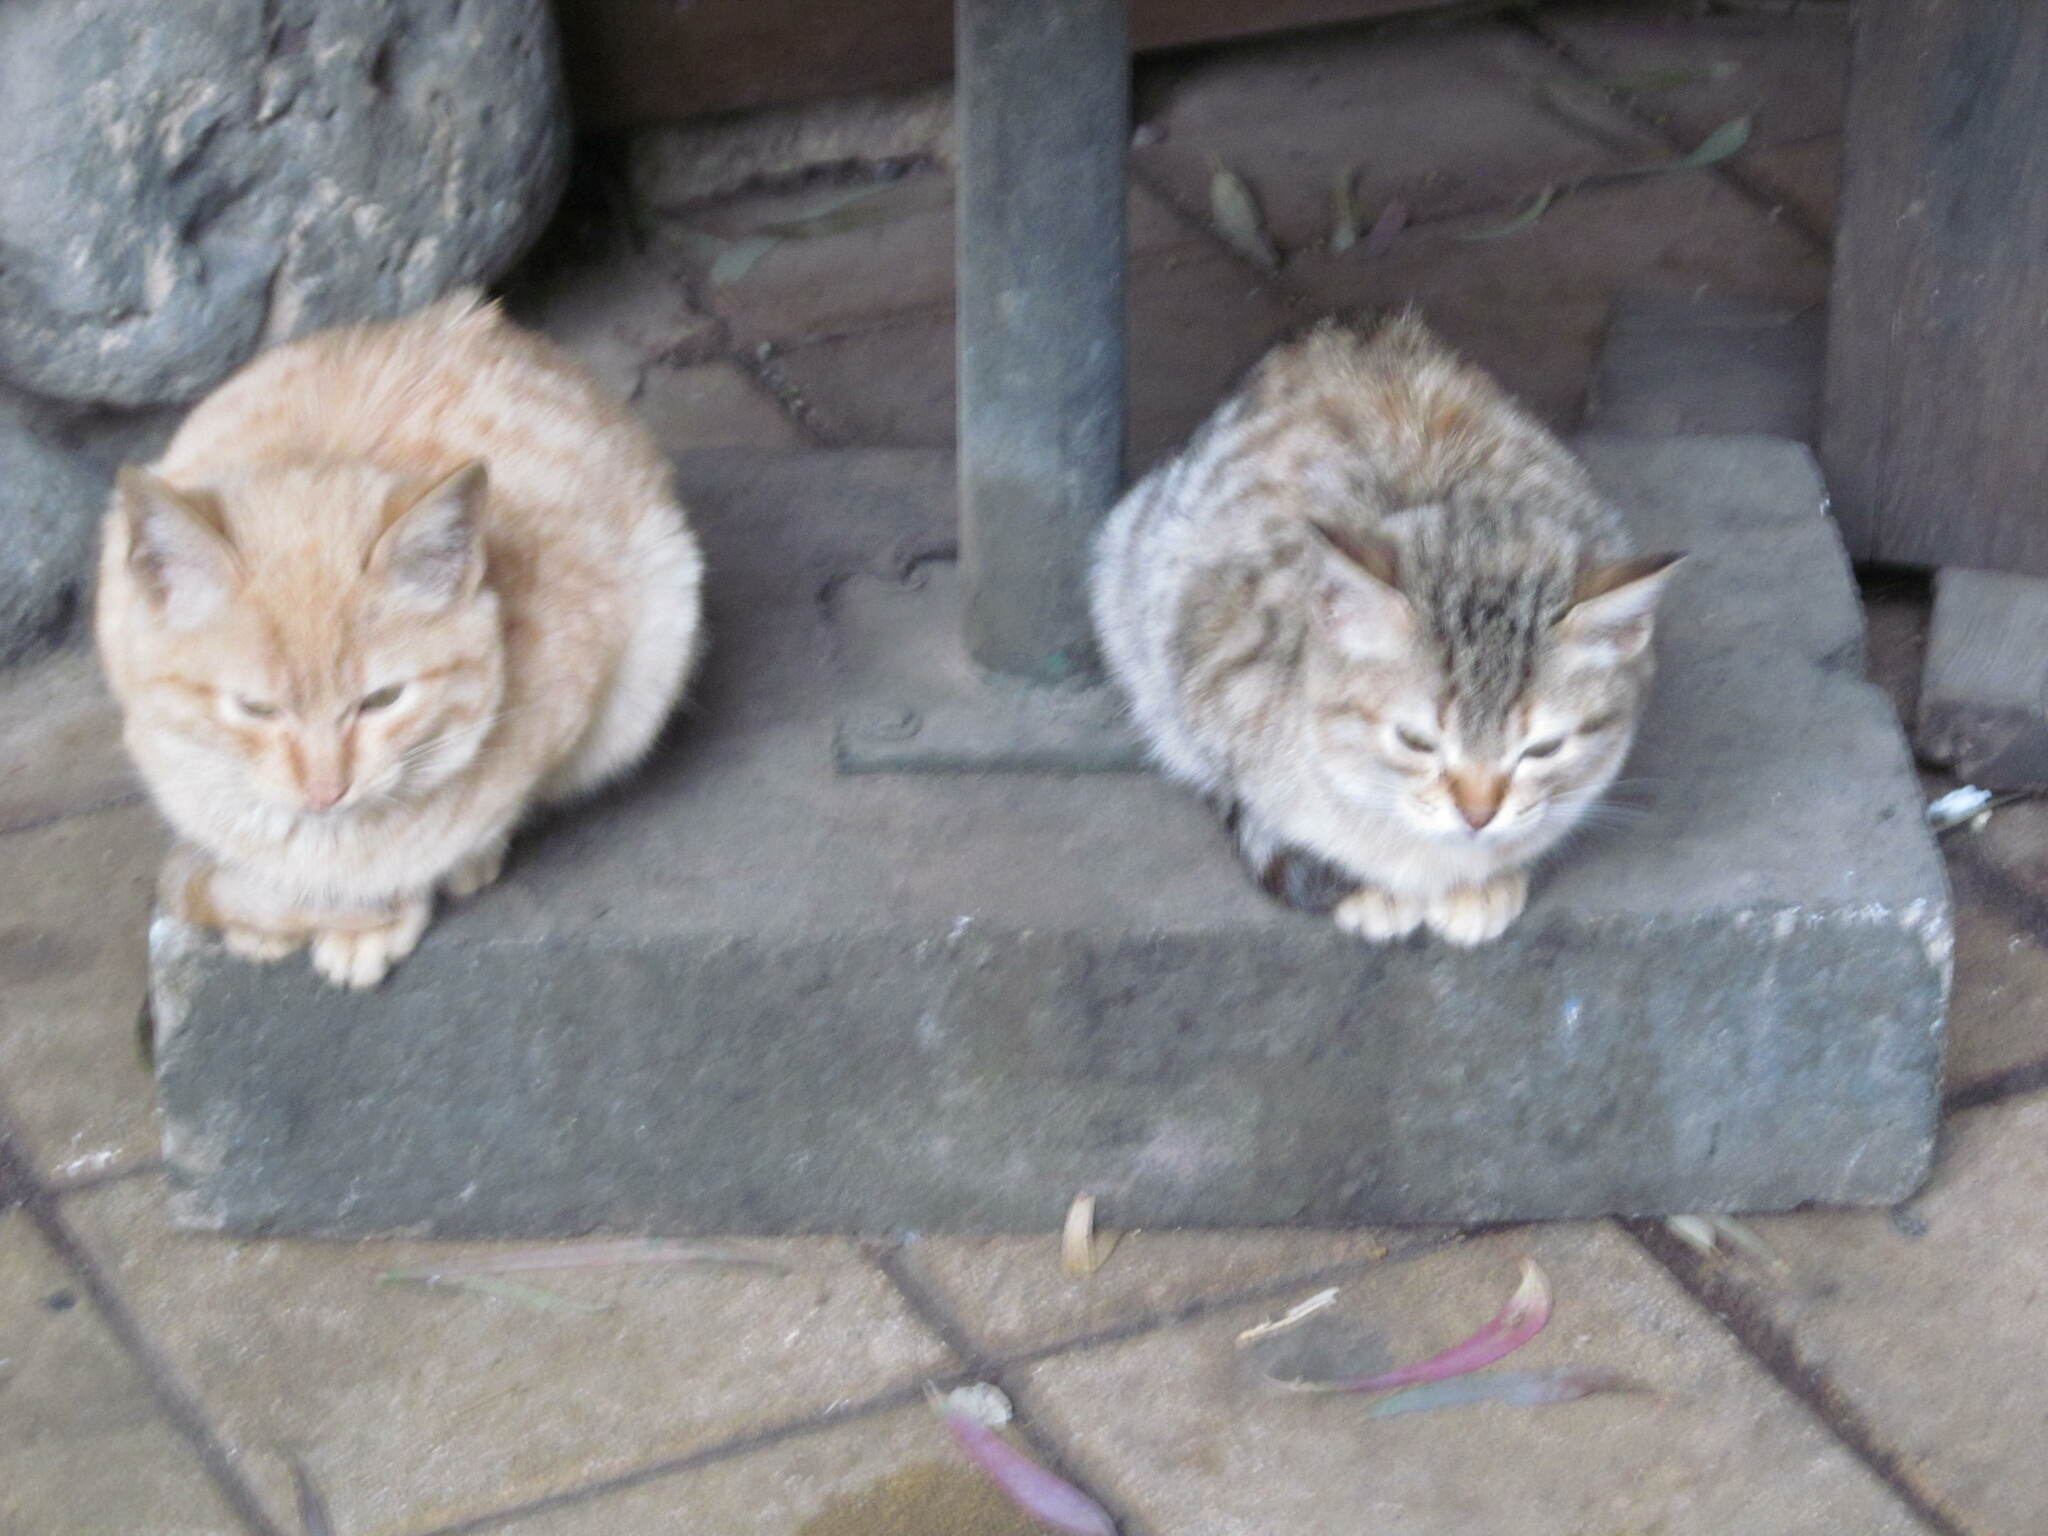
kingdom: Animalia
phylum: Chordata
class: Mammalia
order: Carnivora
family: Felidae
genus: Felis
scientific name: Felis catus
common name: Domestic cat
